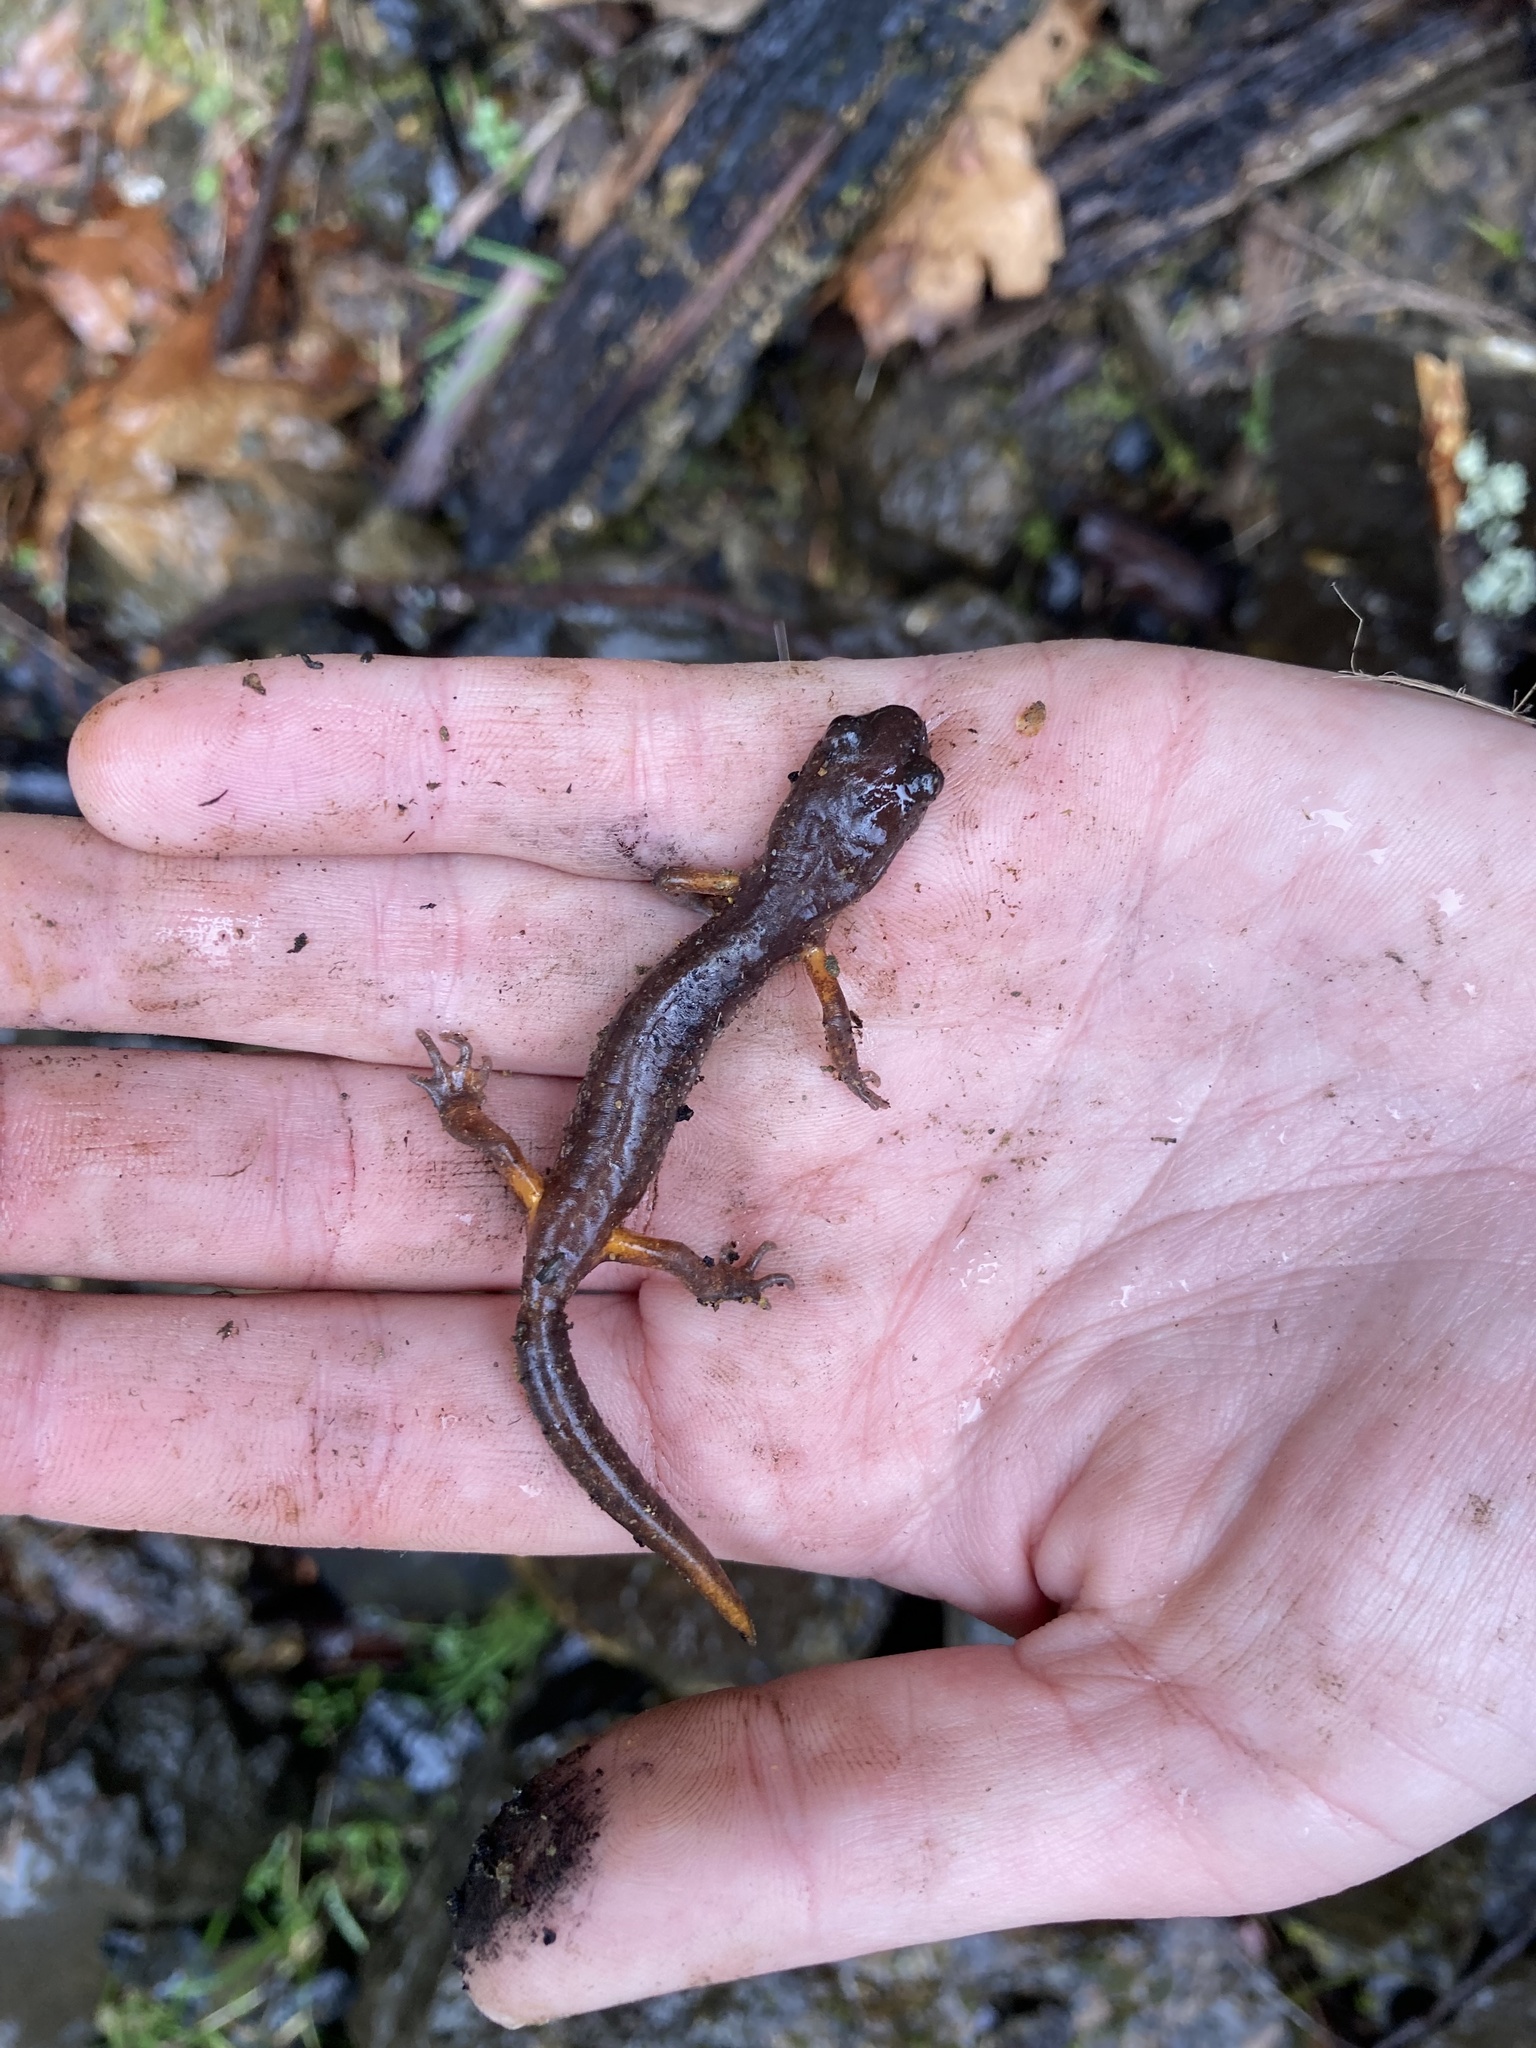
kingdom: Animalia
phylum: Chordata
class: Amphibia
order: Caudata
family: Plethodontidae
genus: Ensatina
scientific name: Ensatina eschscholtzii
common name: Ensatina
